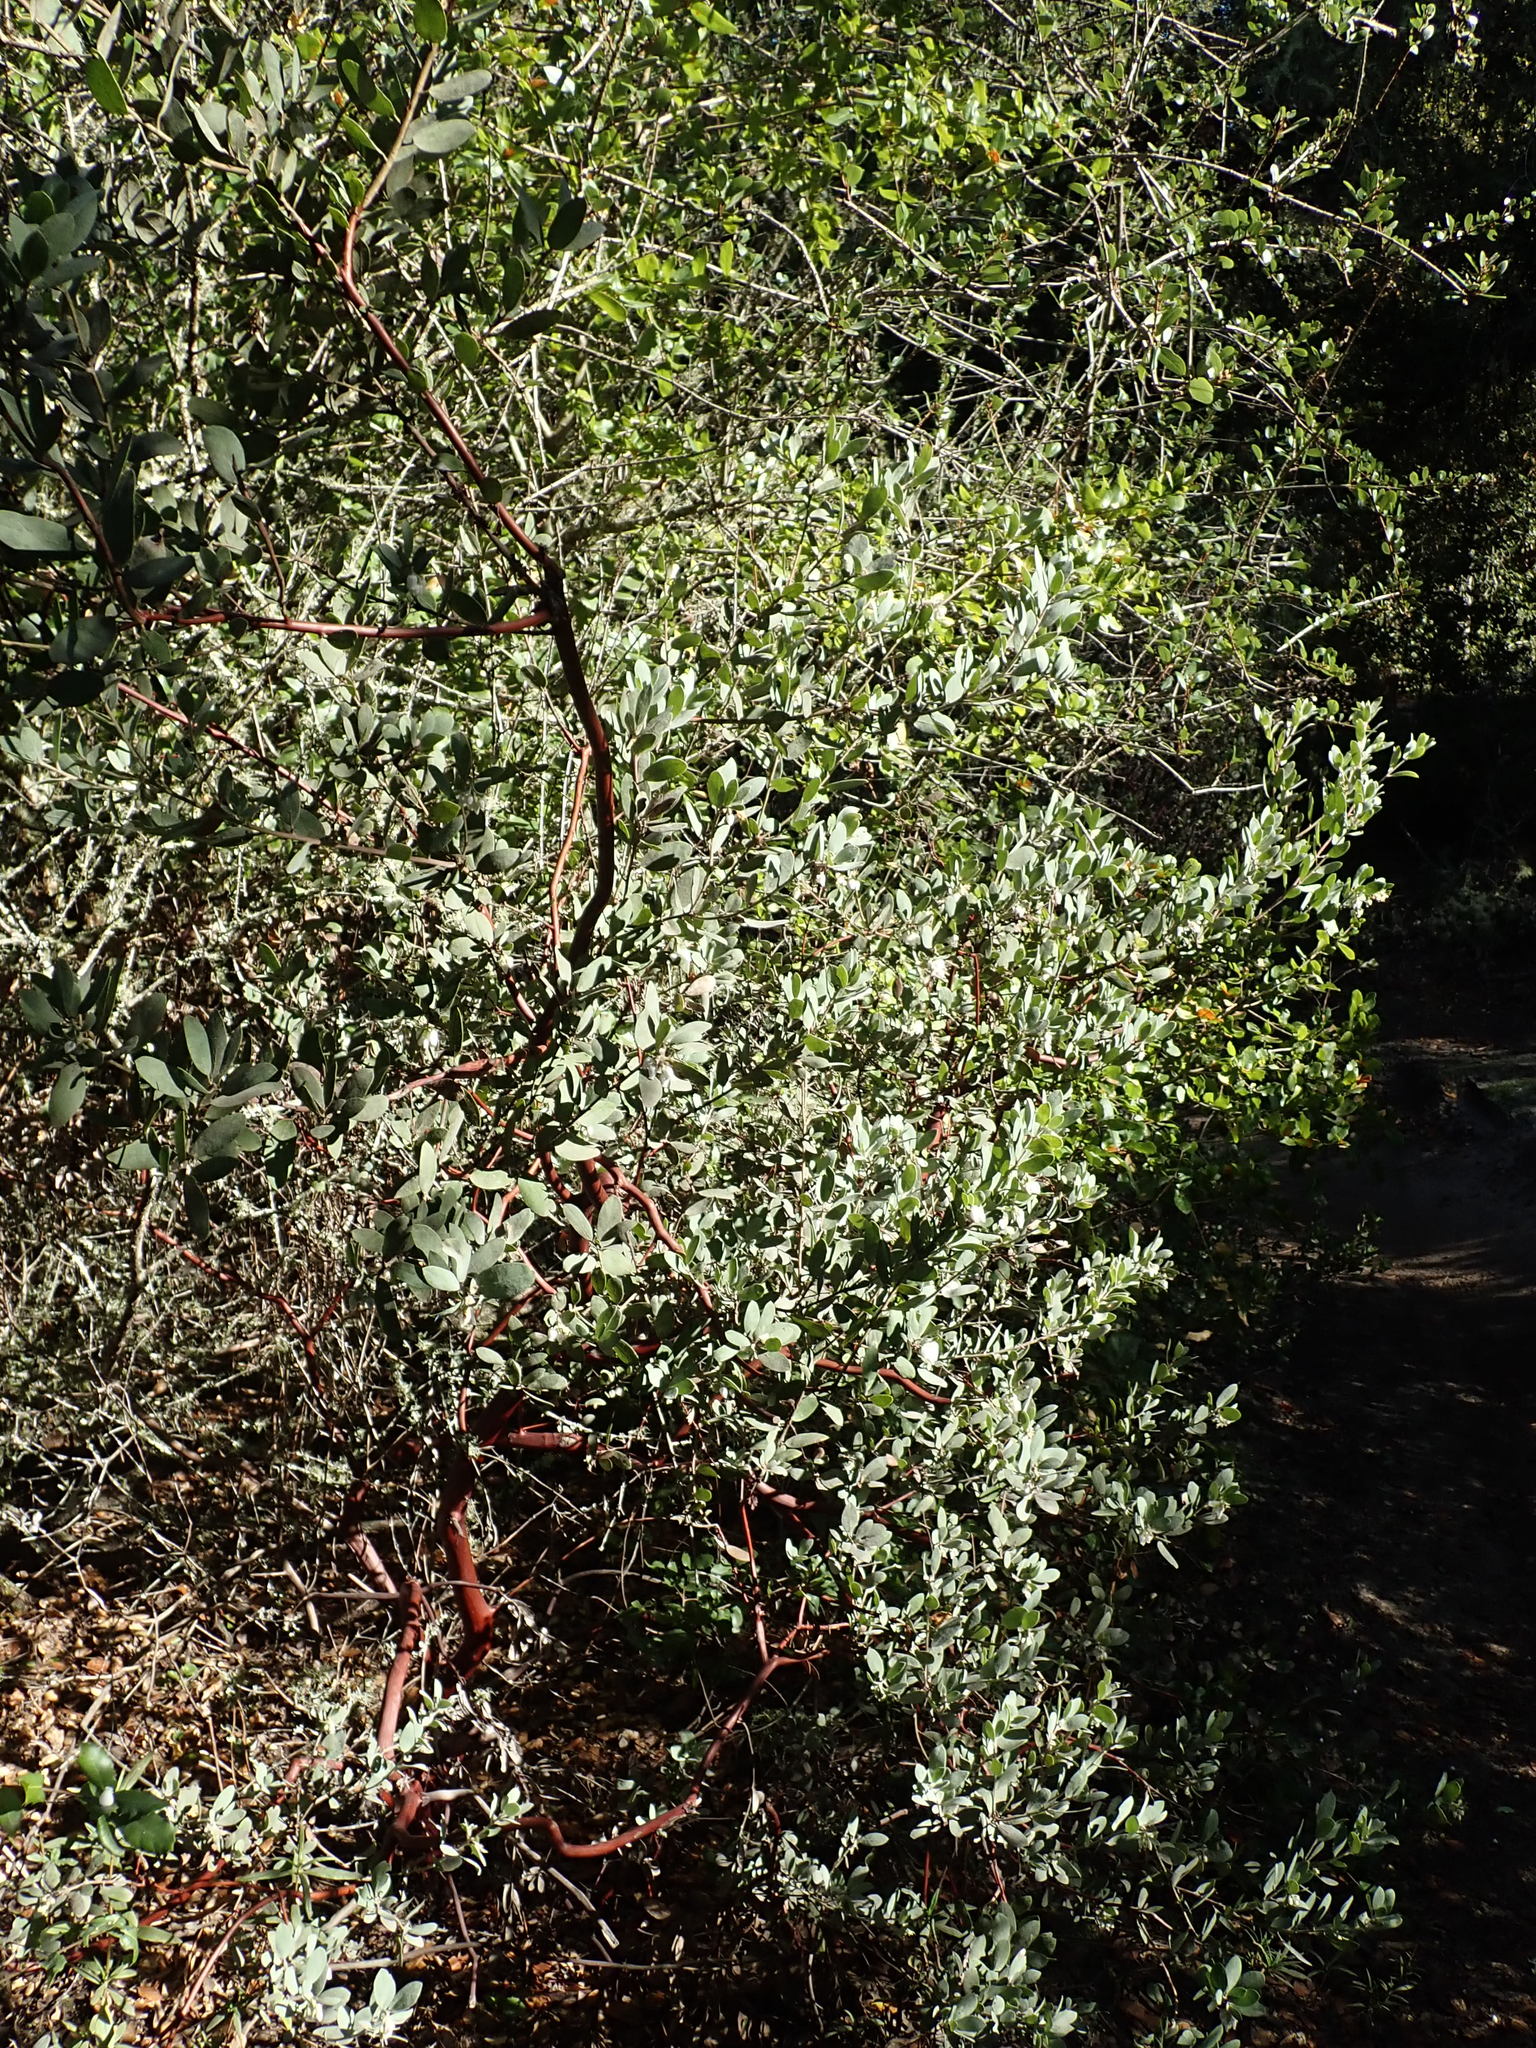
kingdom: Plantae
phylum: Tracheophyta
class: Magnoliopsida
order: Ericales
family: Ericaceae
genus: Arctostaphylos
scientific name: Arctostaphylos silvicola
